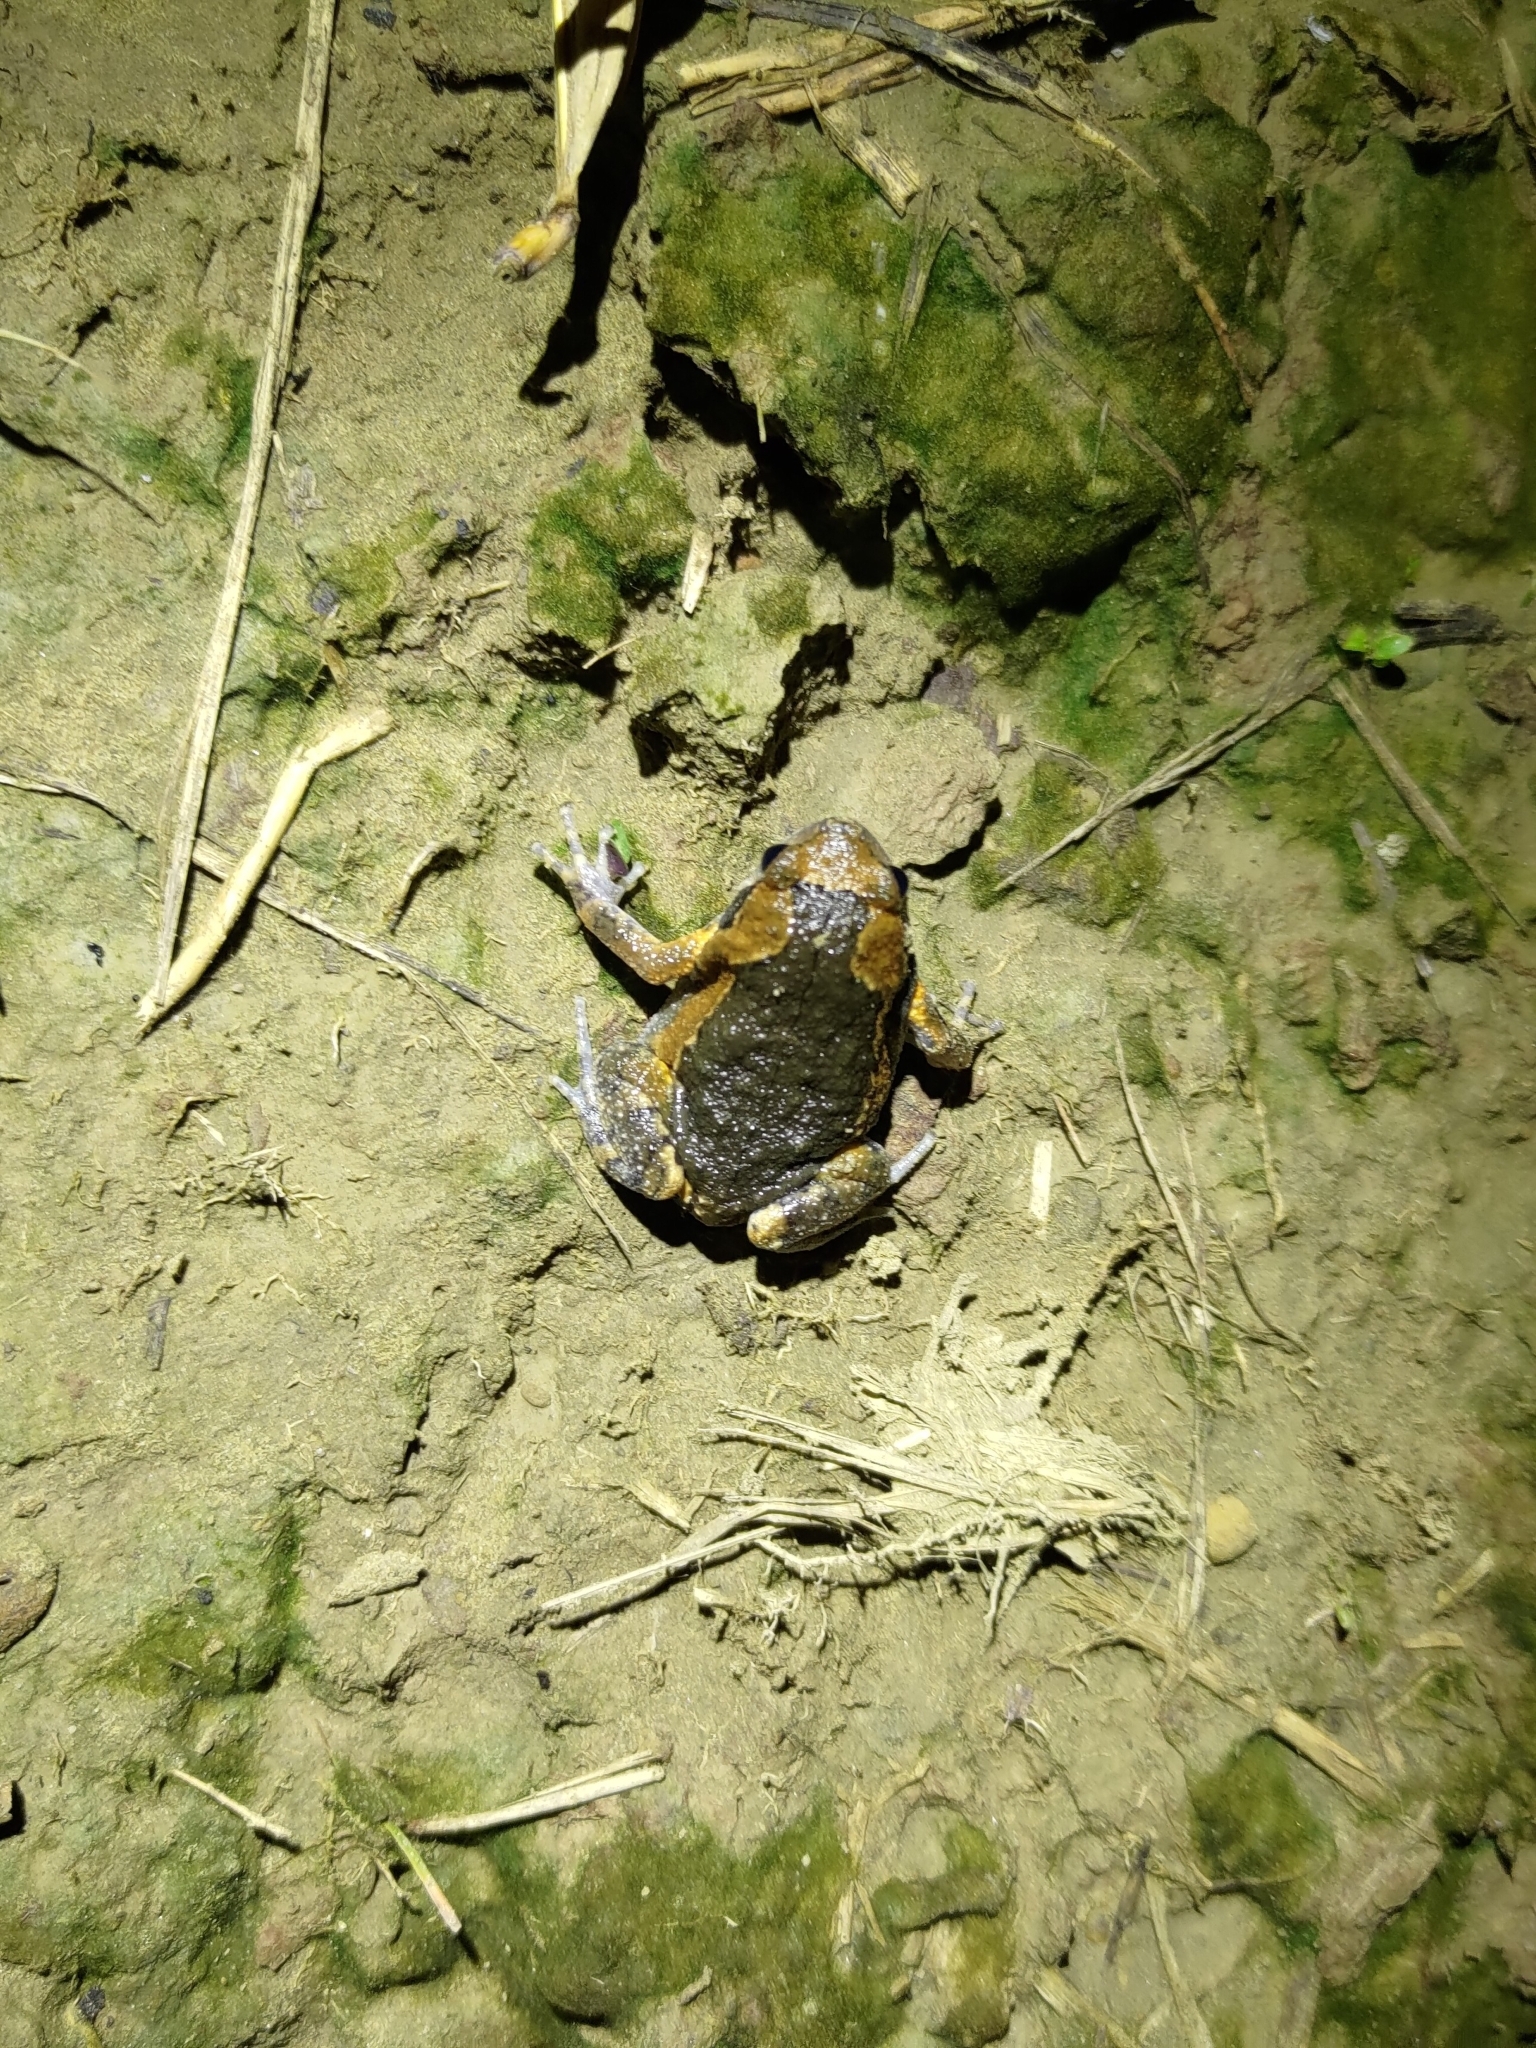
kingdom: Animalia
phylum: Chordata
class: Amphibia
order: Anura
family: Microhylidae
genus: Kaloula
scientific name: Kaloula pulchra
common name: Common,banded bullfrog
